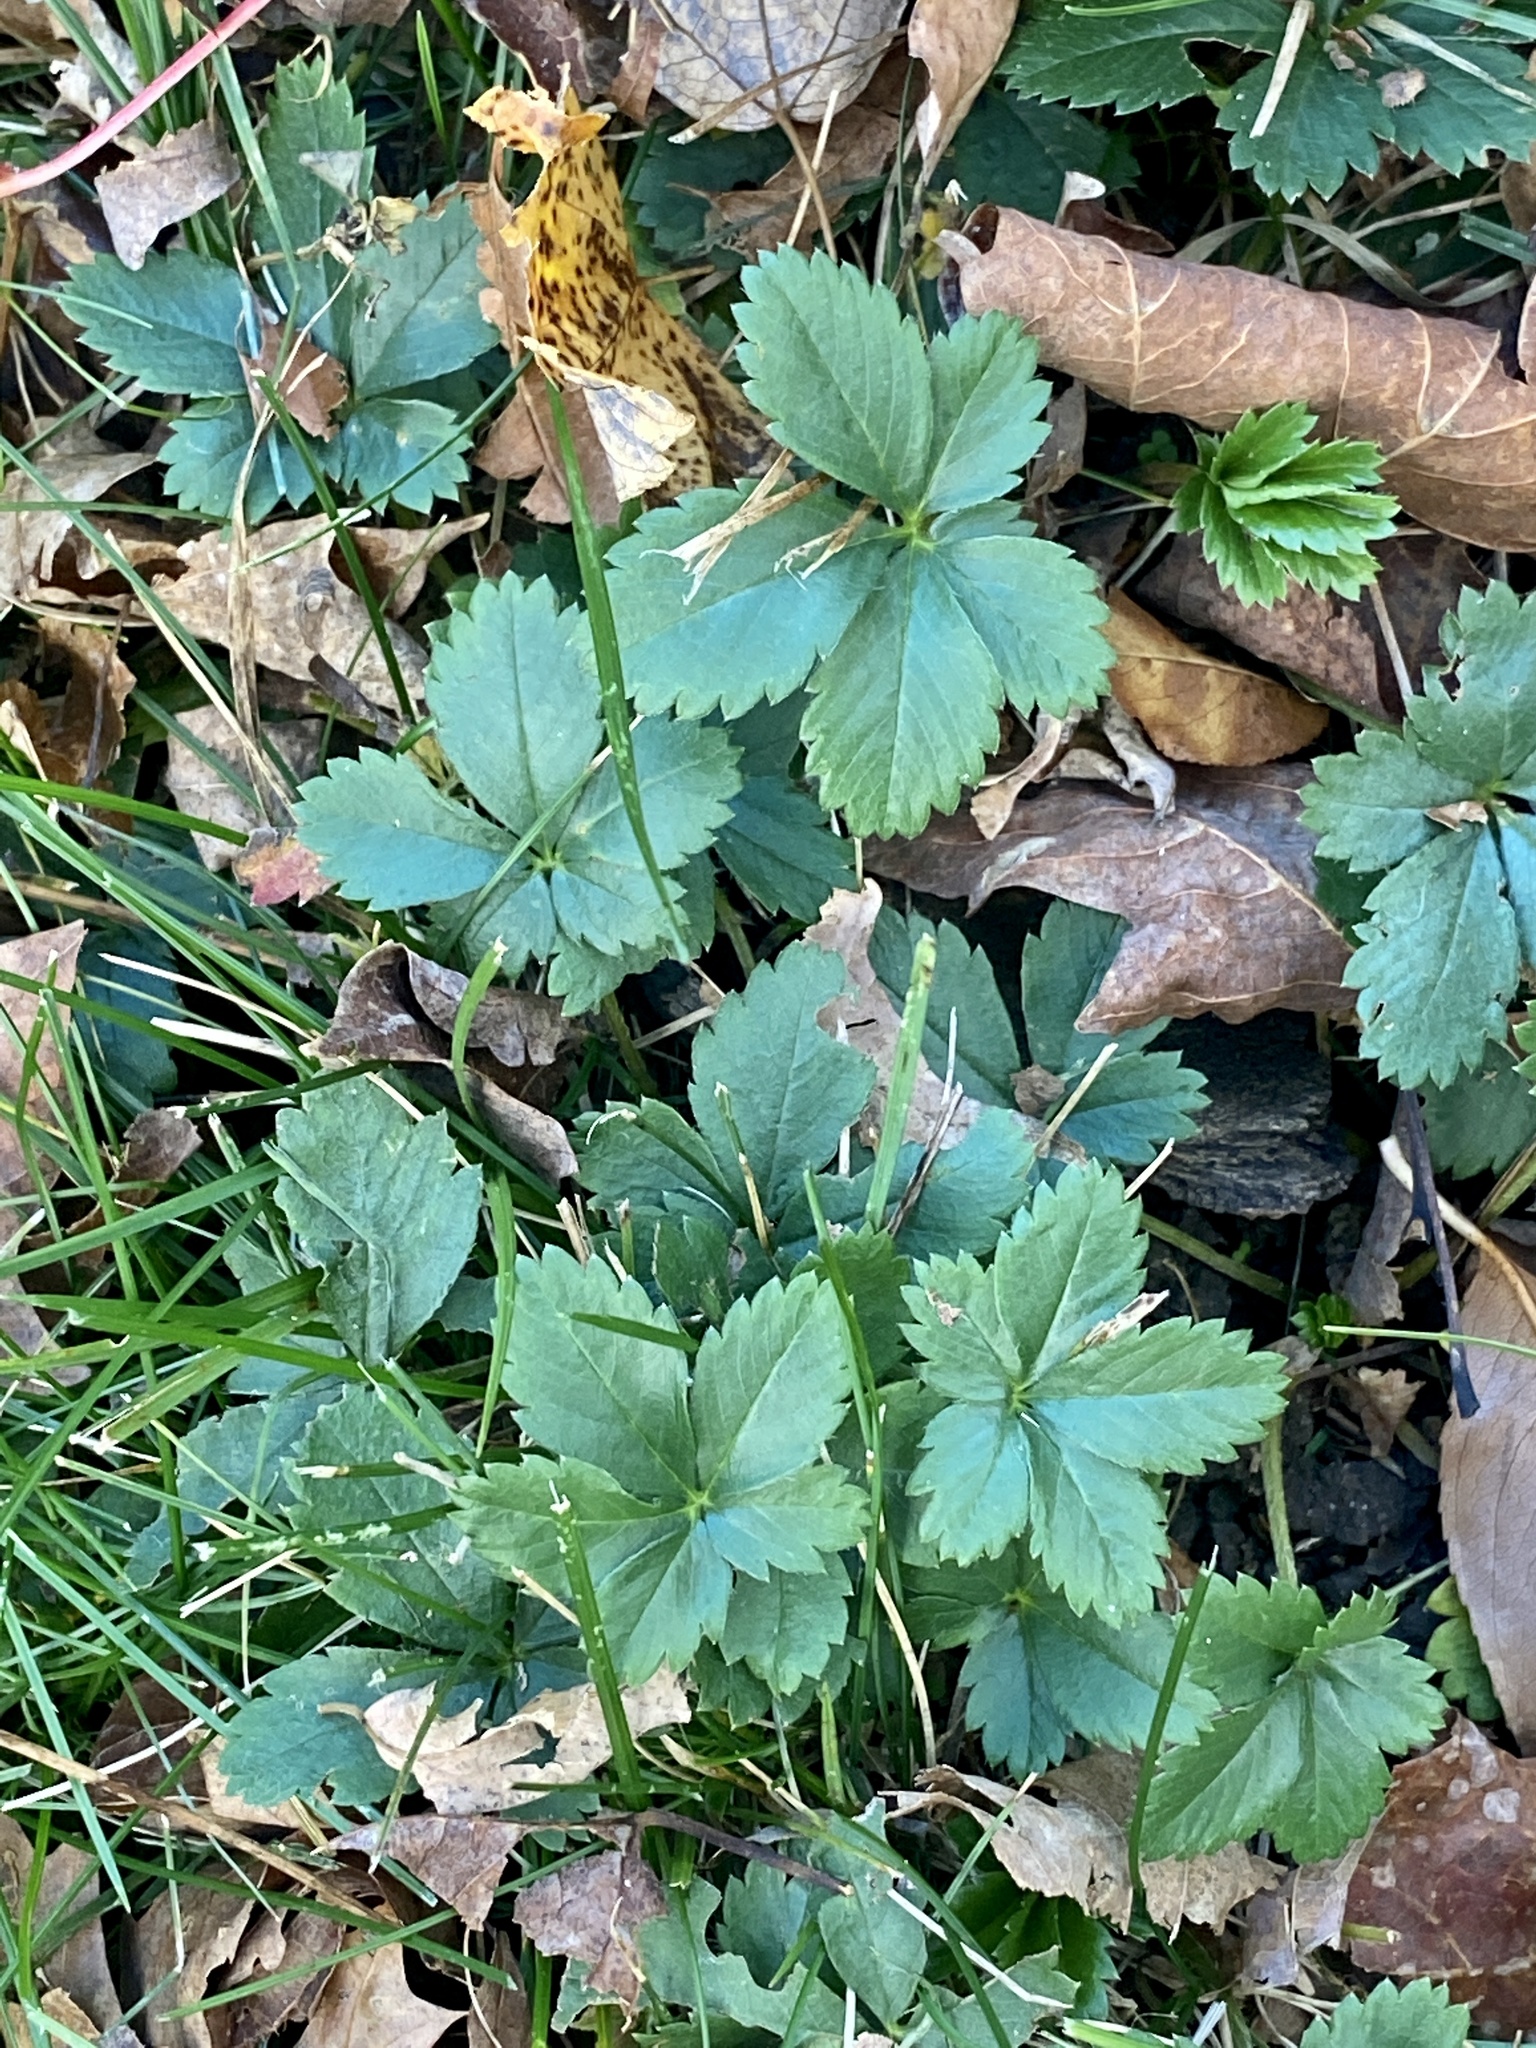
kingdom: Plantae
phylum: Tracheophyta
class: Magnoliopsida
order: Rosales
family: Rosaceae
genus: Potentilla
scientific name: Potentilla canadensis
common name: Canada cinquefoil
